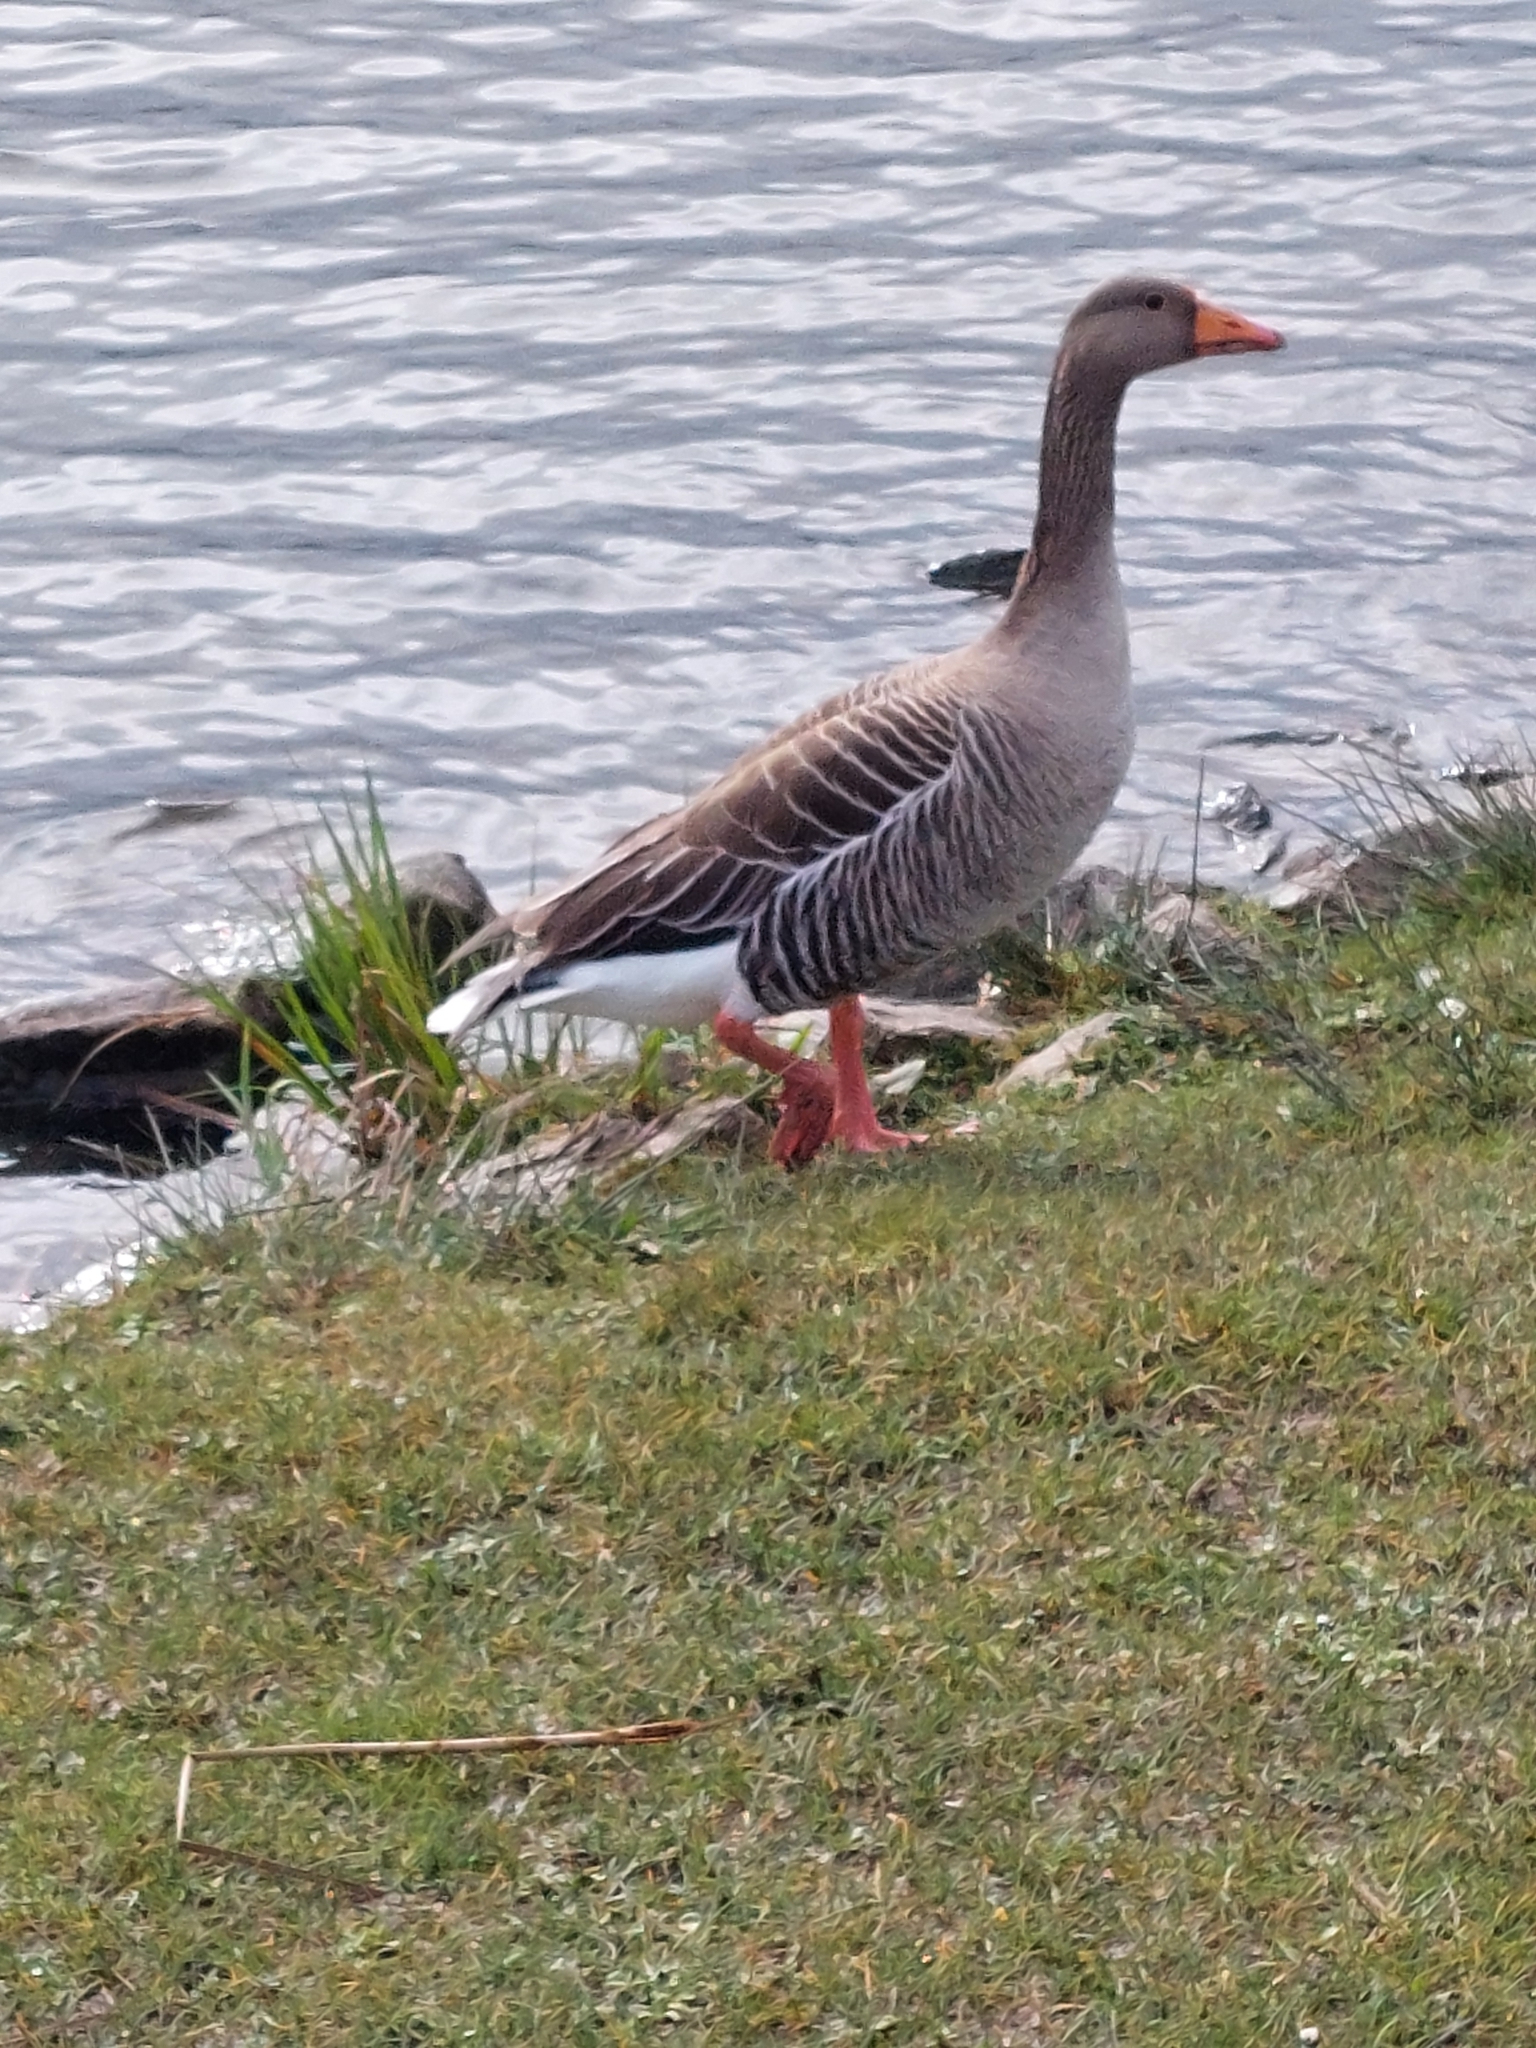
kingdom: Animalia
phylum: Chordata
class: Aves
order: Anseriformes
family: Anatidae
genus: Anser
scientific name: Anser anser
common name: Greylag goose
